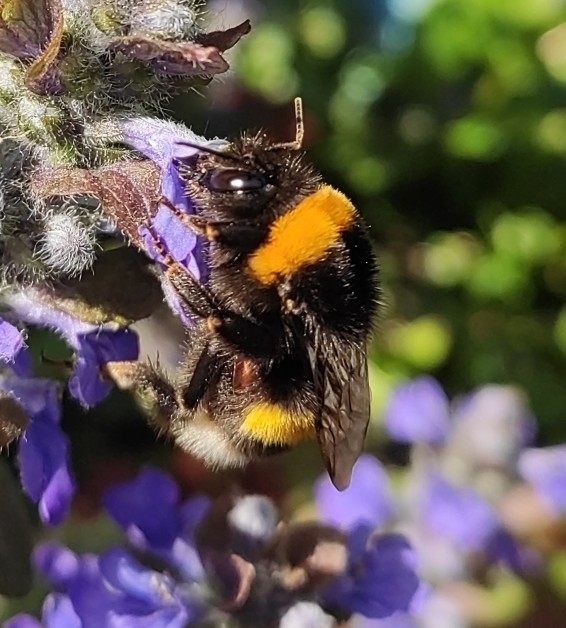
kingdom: Animalia
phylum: Arthropoda
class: Insecta
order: Hymenoptera
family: Apidae
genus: Bombus
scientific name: Bombus
